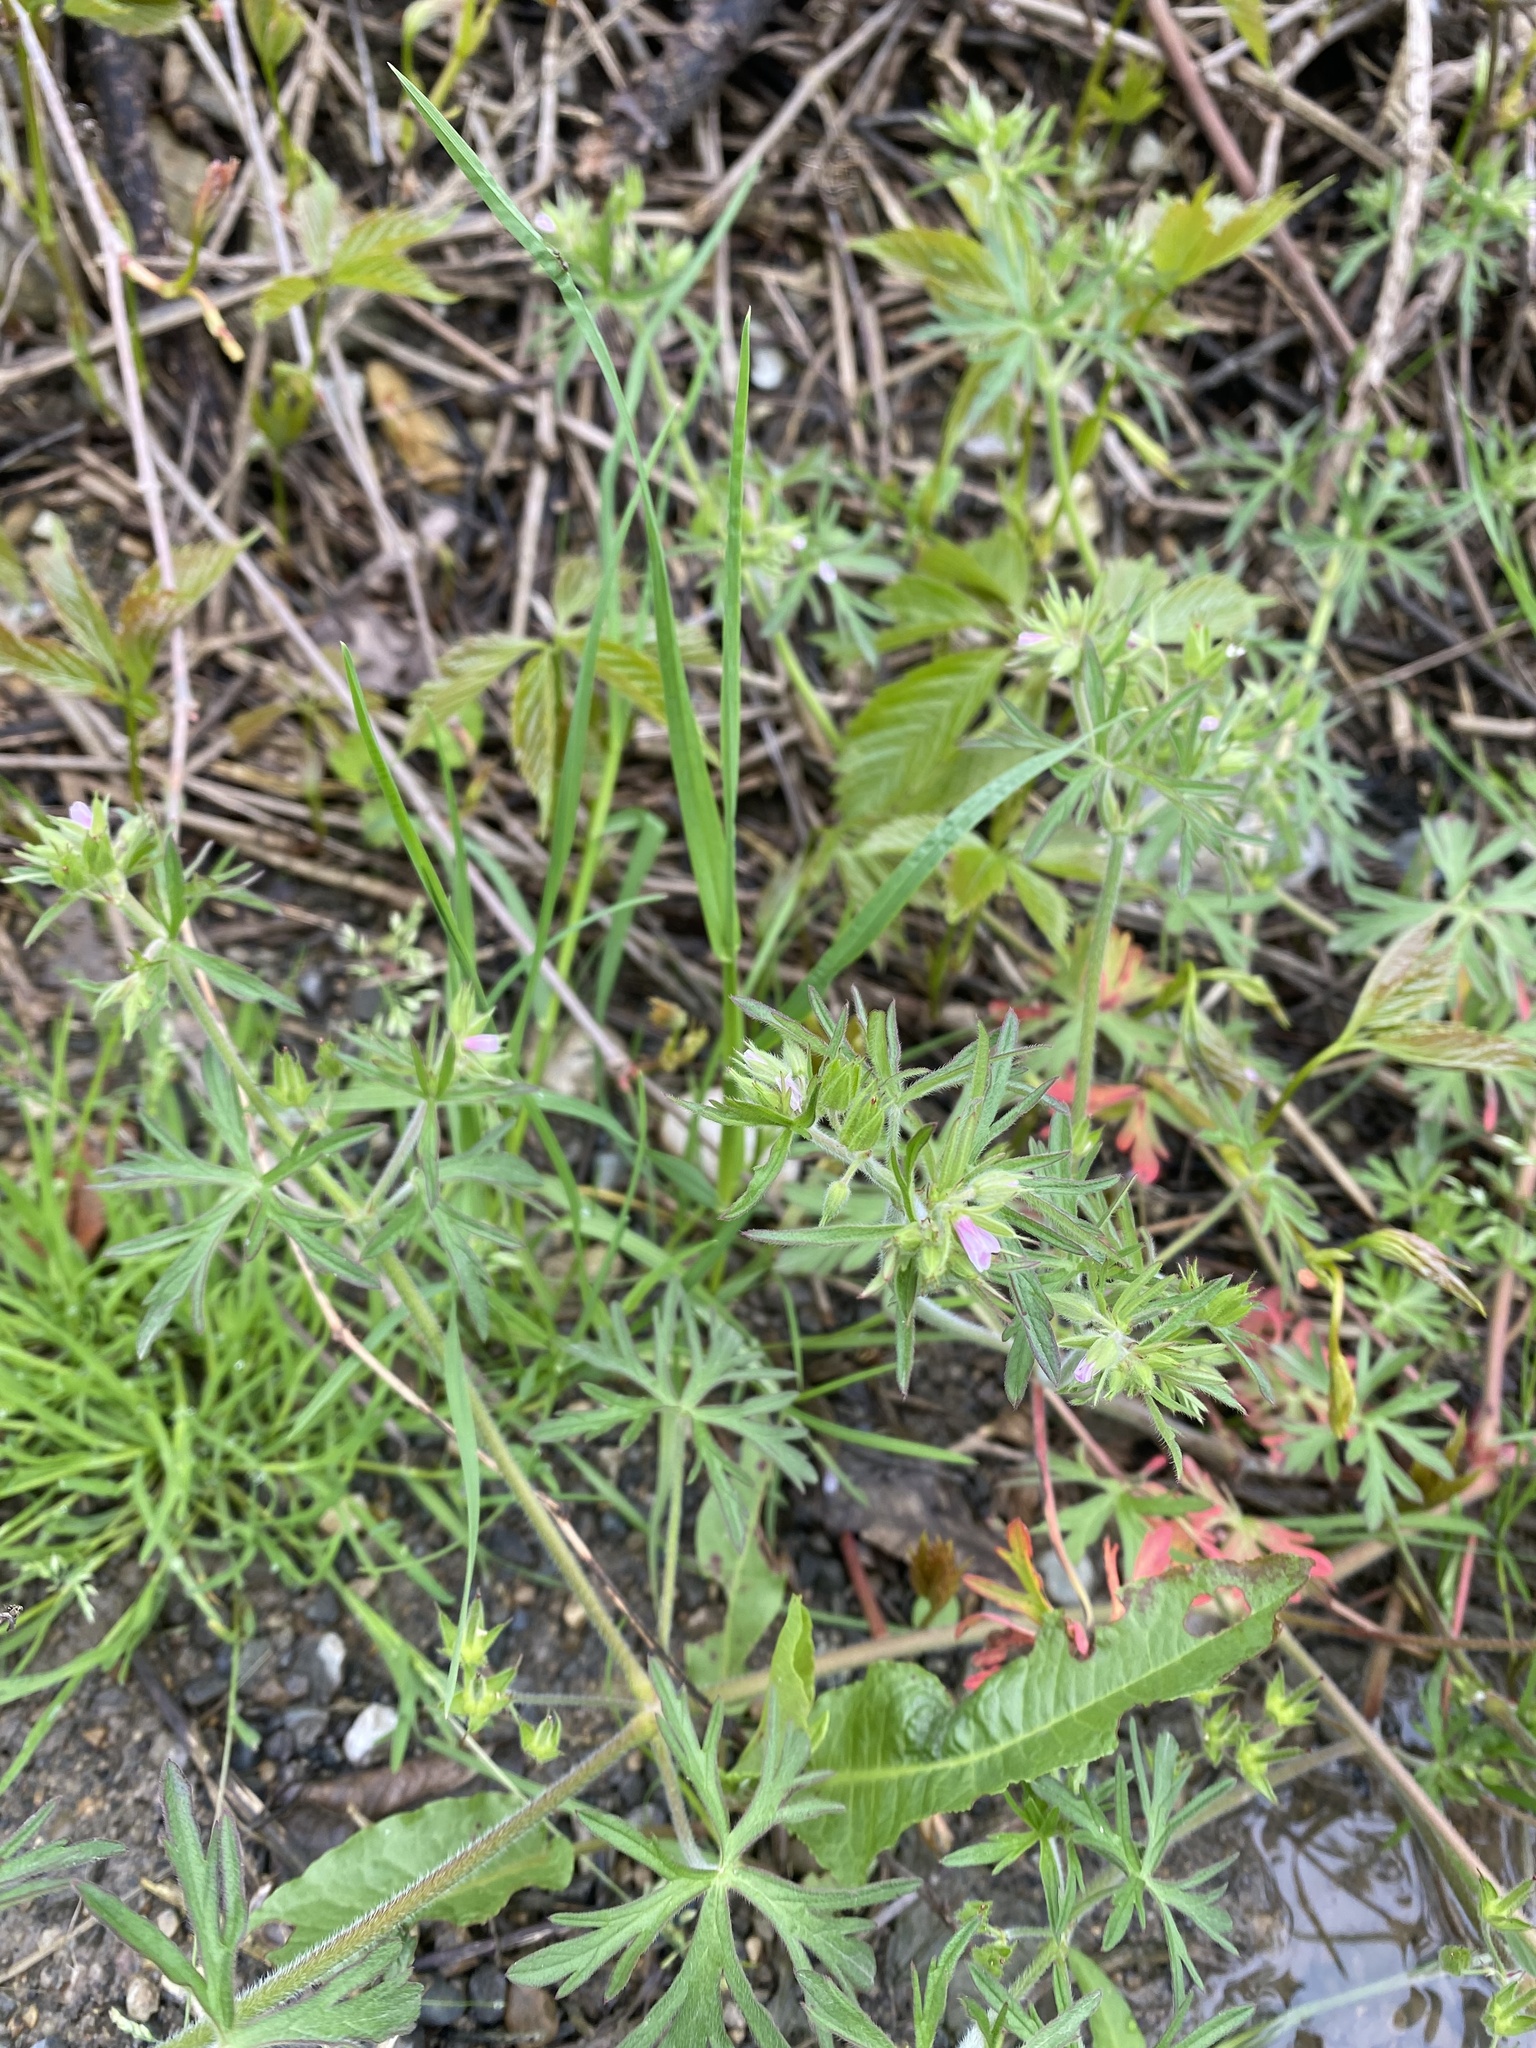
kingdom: Plantae
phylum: Tracheophyta
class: Magnoliopsida
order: Geraniales
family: Geraniaceae
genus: Geranium
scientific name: Geranium dissectum
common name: Cut-leaved crane's-bill
